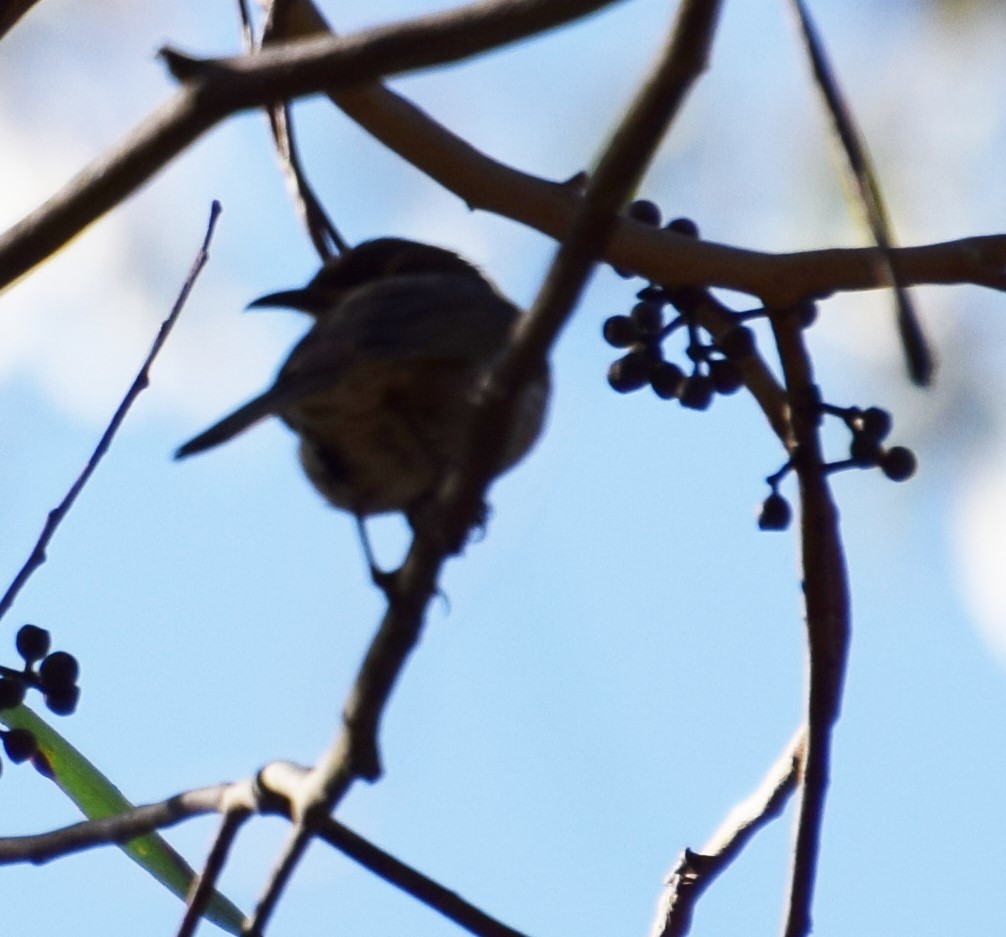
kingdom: Animalia
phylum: Chordata
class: Aves
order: Passeriformes
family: Meliphagidae
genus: Caligavis
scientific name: Caligavis chrysops
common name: Yellow-faced honeyeater
